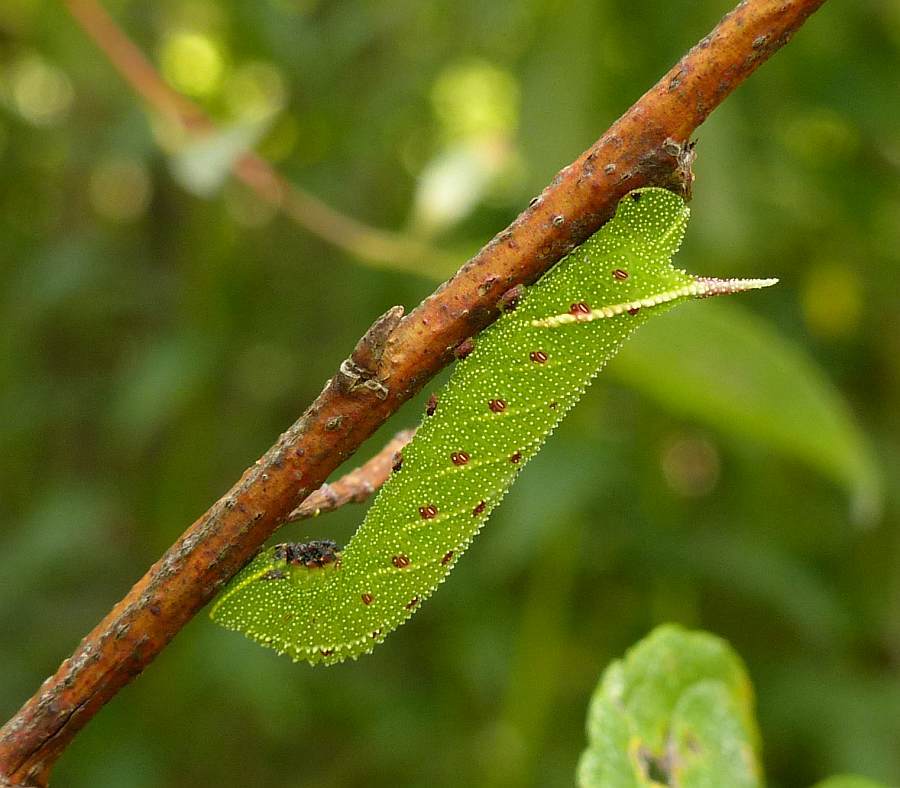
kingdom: Animalia
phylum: Arthropoda
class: Insecta
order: Lepidoptera
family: Sphingidae
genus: Paonias
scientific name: Paonias excaecata
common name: Blind-eyed sphinx
